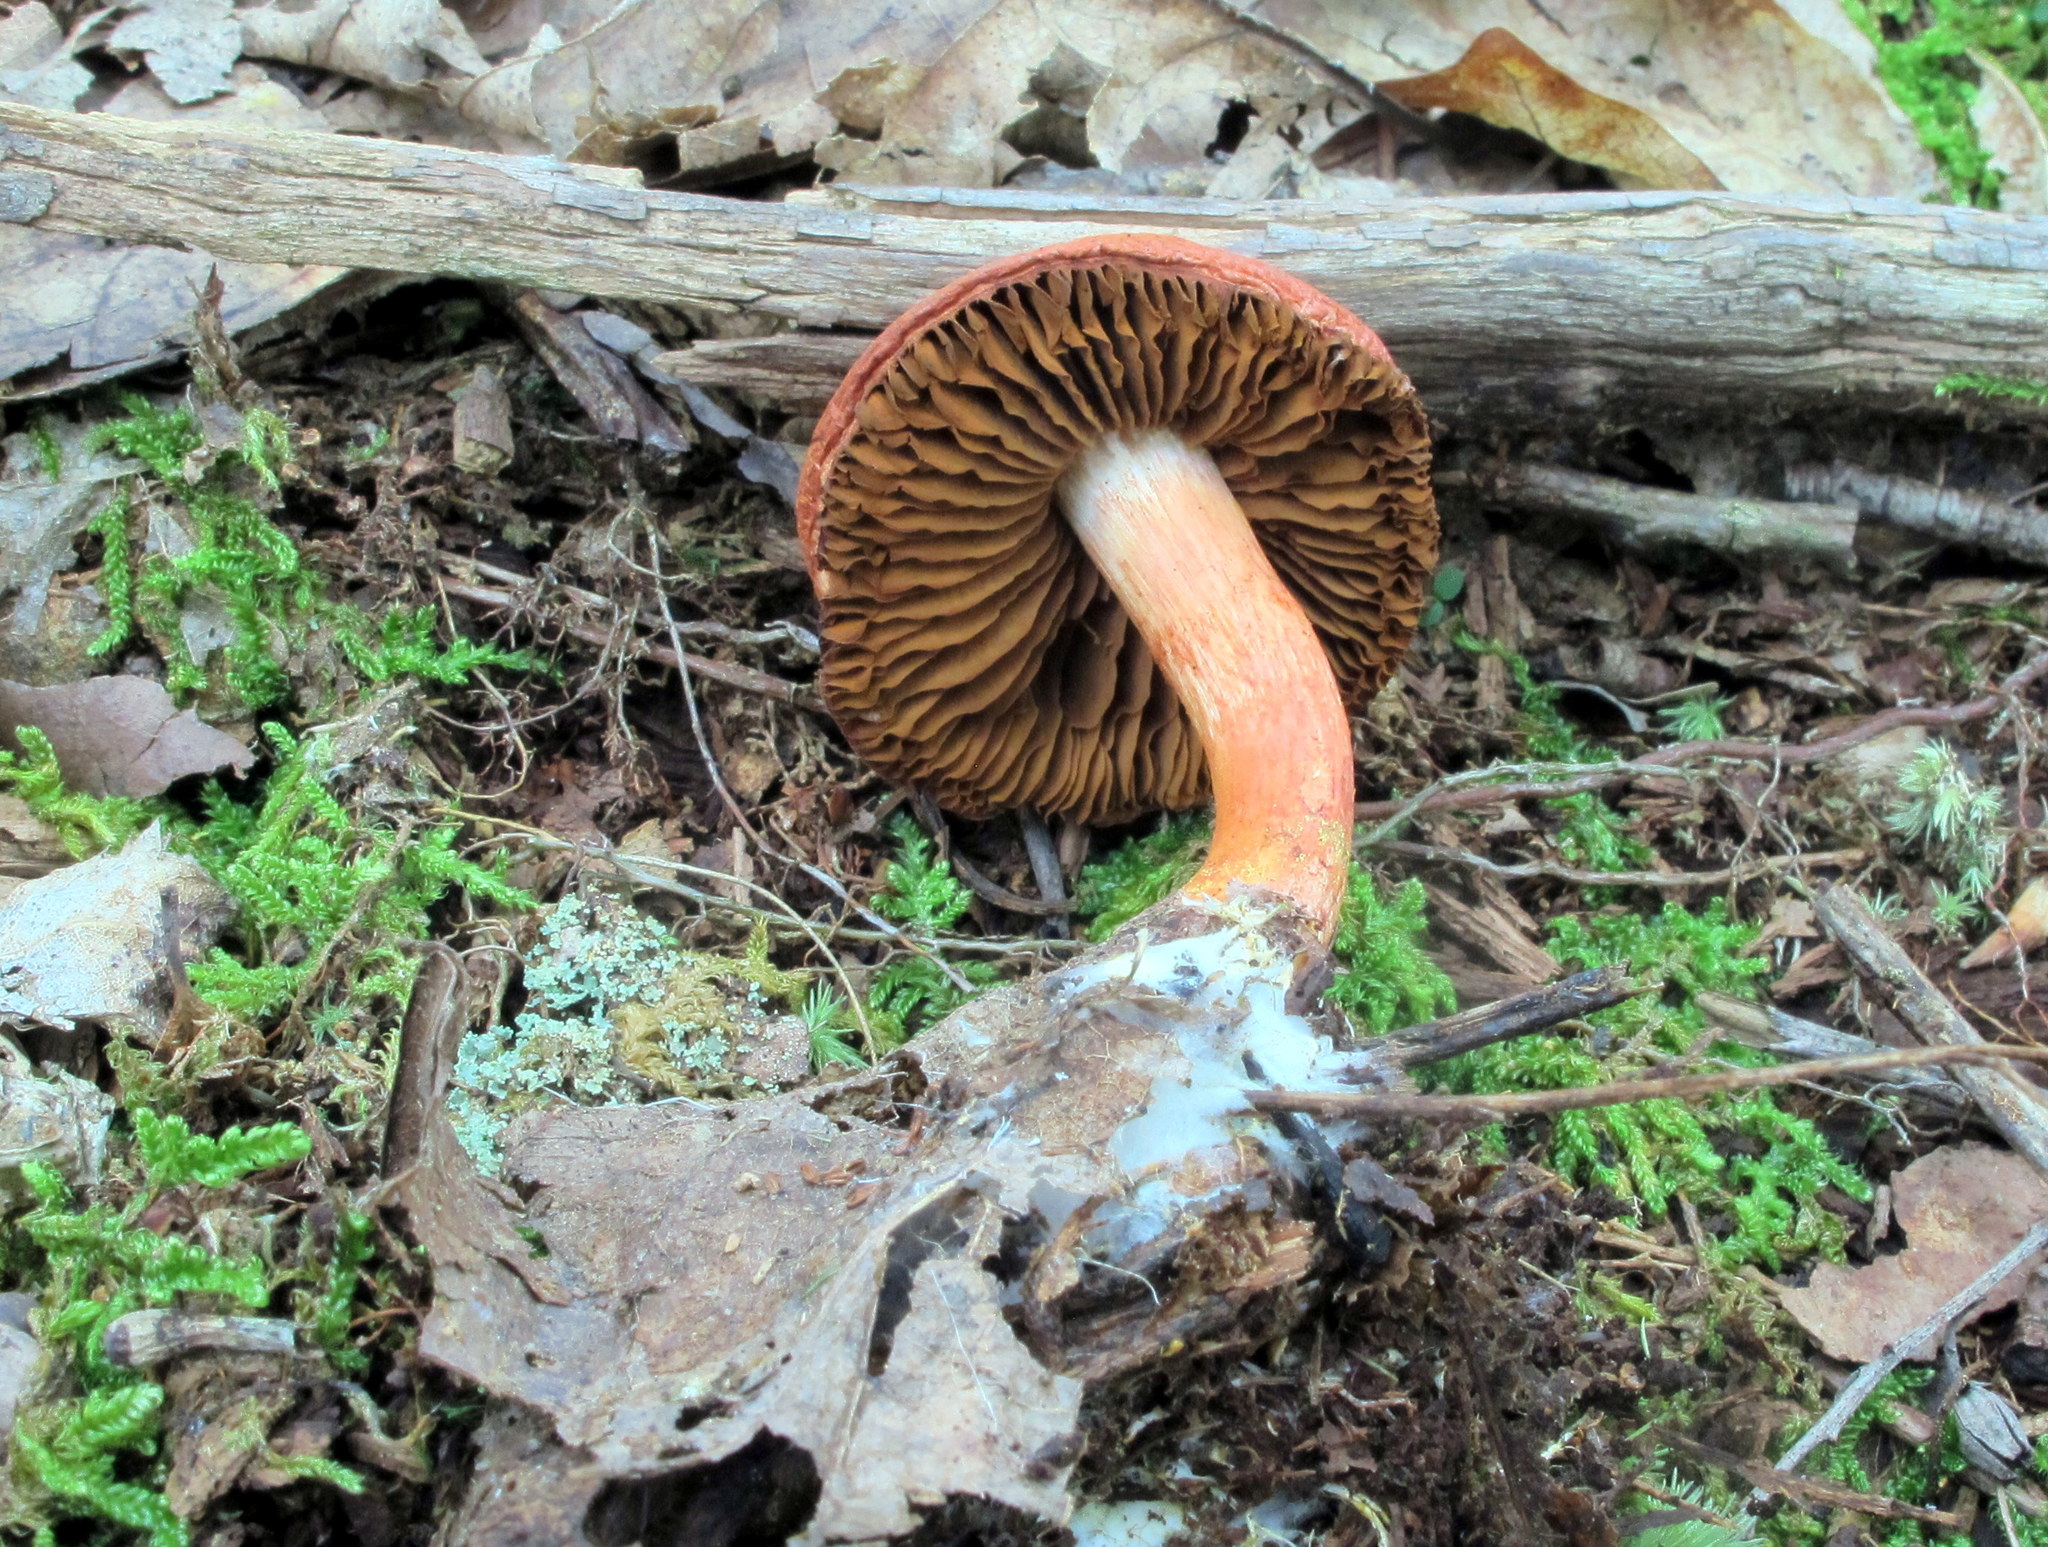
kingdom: Fungi
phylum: Basidiomycota
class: Agaricomycetes
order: Agaricales
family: Cortinariaceae
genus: Cortinarius
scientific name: Cortinarius bolaris
